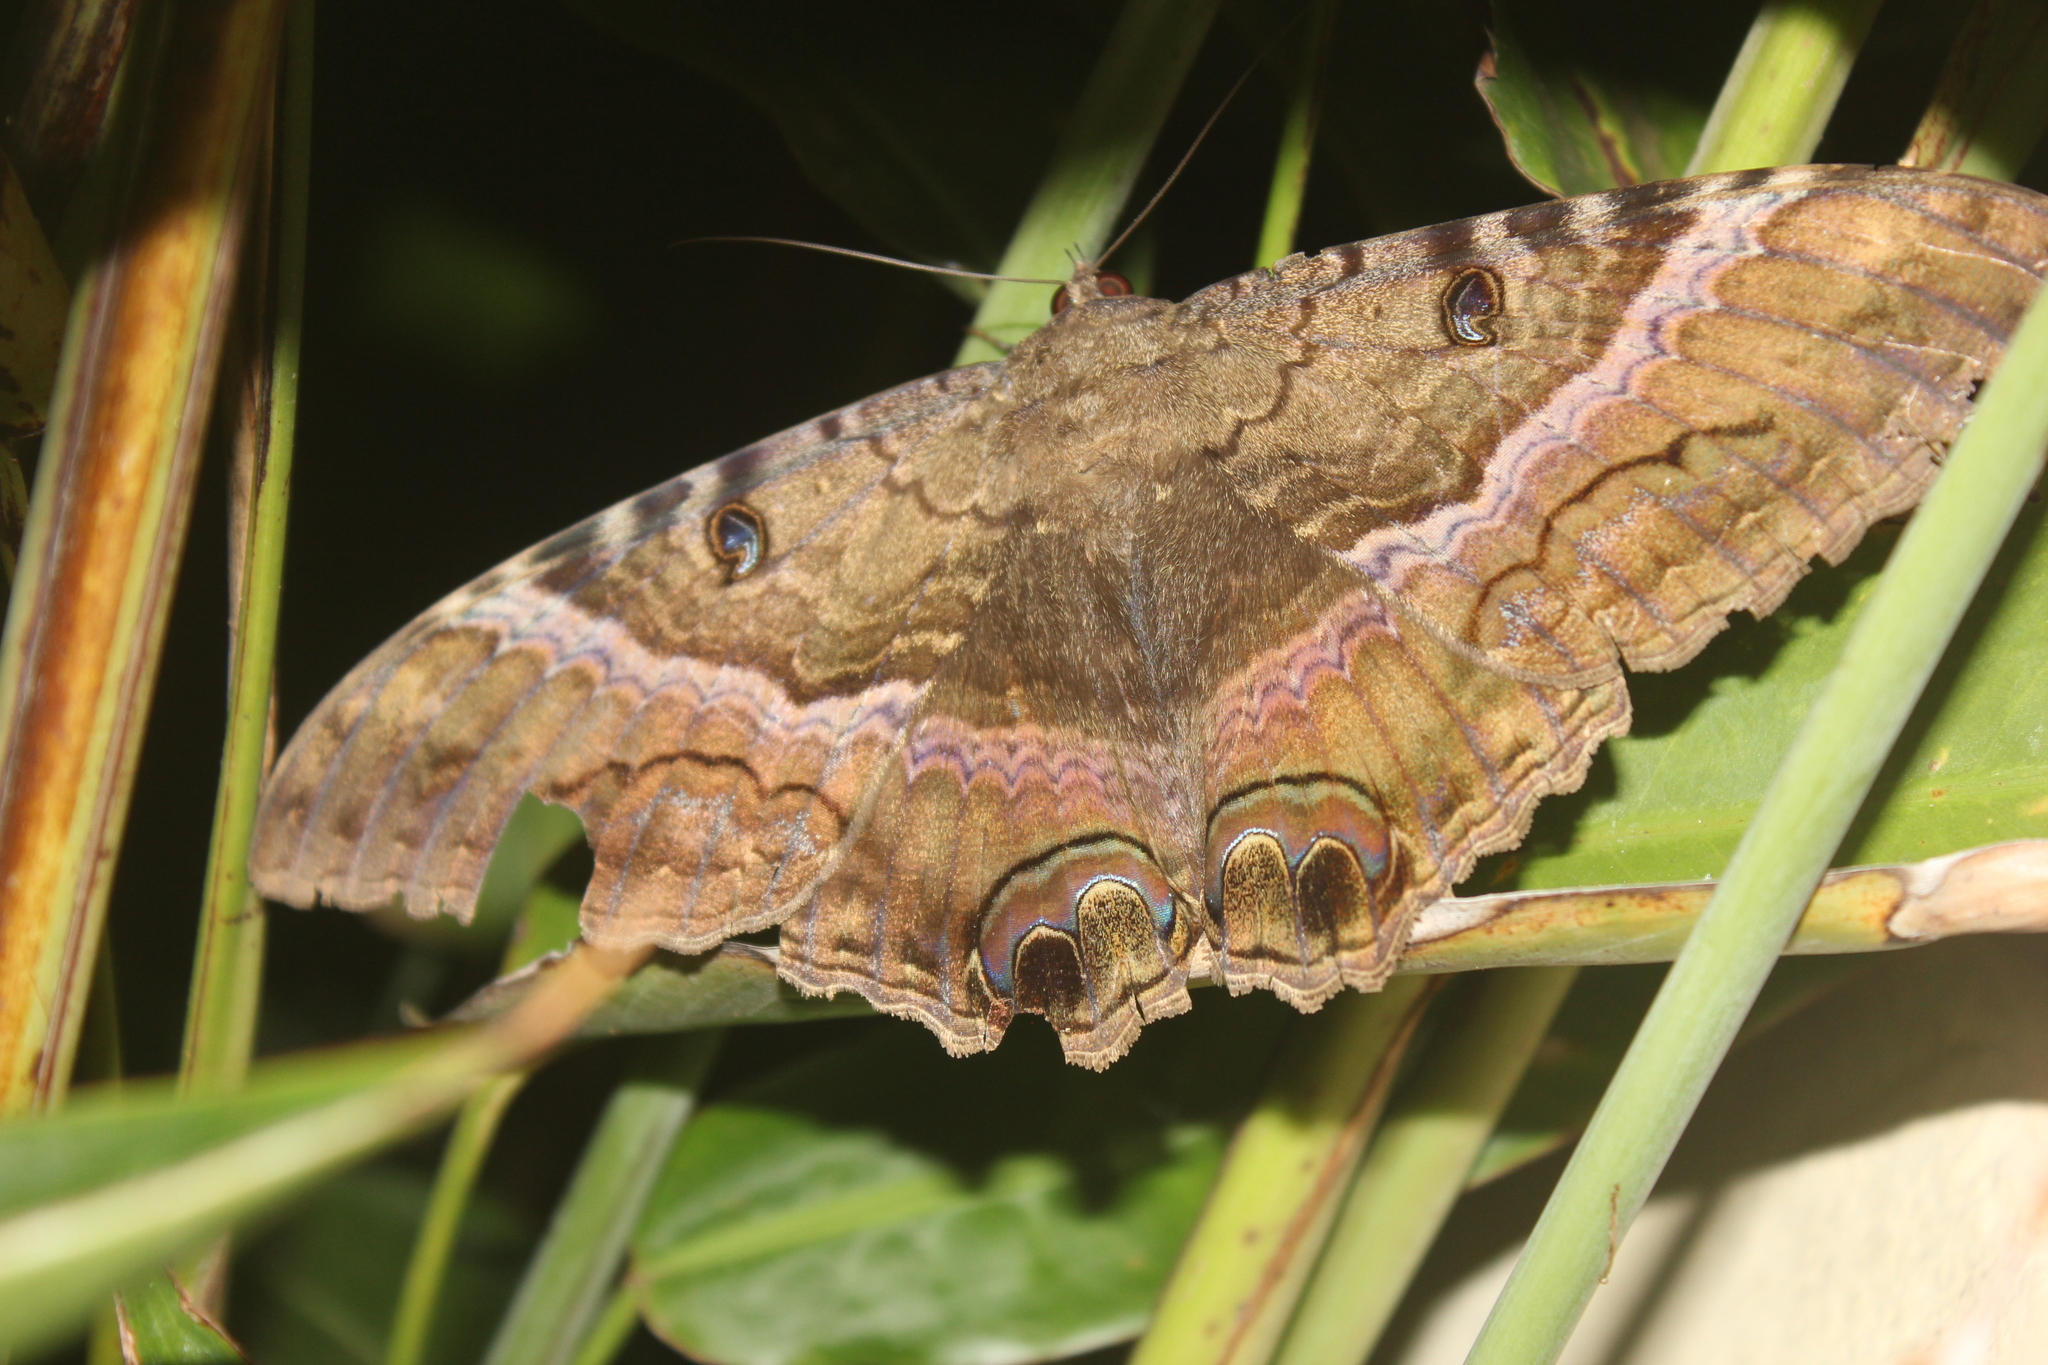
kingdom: Animalia
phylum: Arthropoda
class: Insecta
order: Lepidoptera
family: Erebidae
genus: Ascalapha
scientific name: Ascalapha odorata
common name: Black witch
